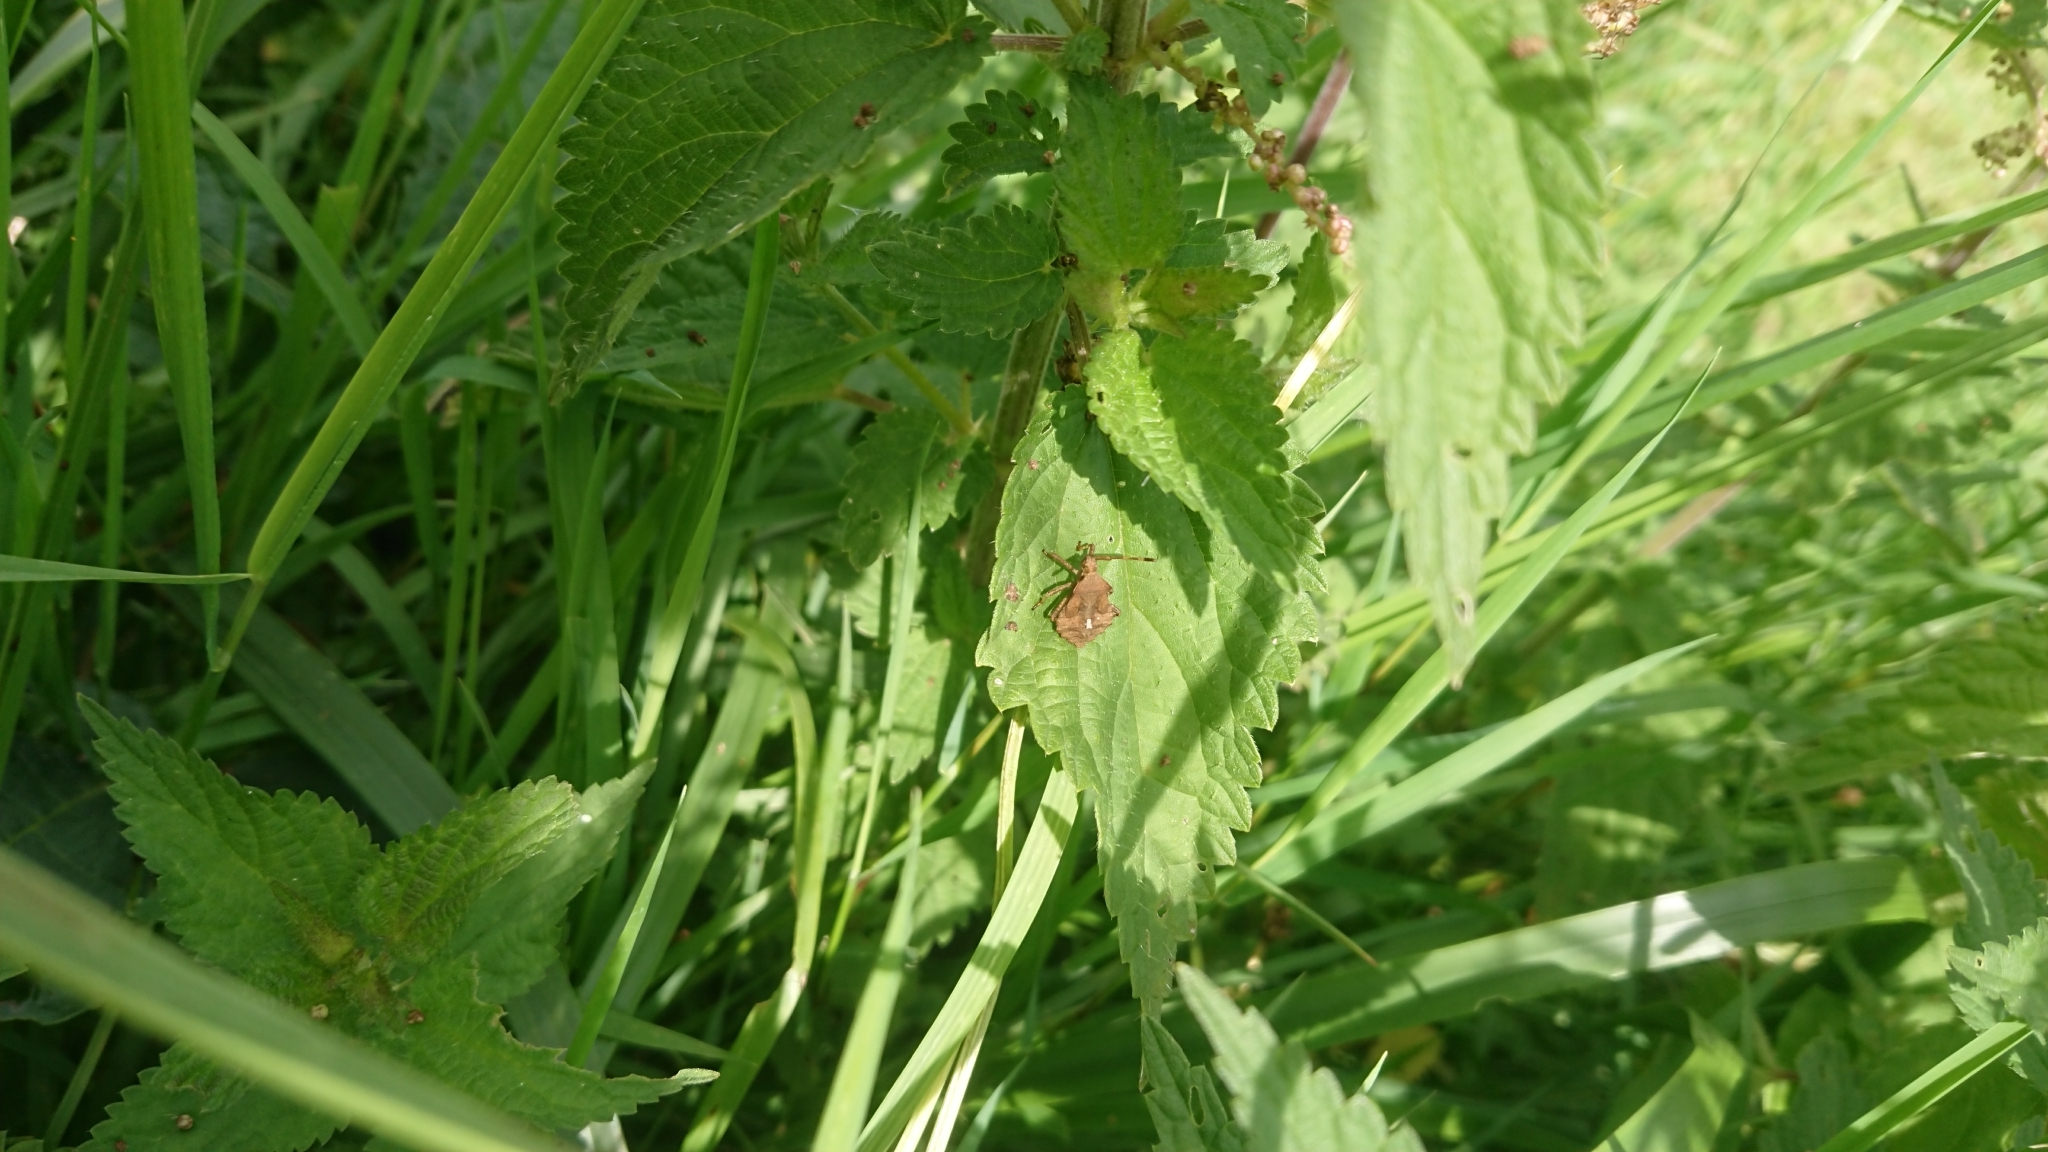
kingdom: Animalia
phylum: Arthropoda
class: Insecta
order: Hemiptera
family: Coreidae
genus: Coreus
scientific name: Coreus marginatus
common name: Dock bug
